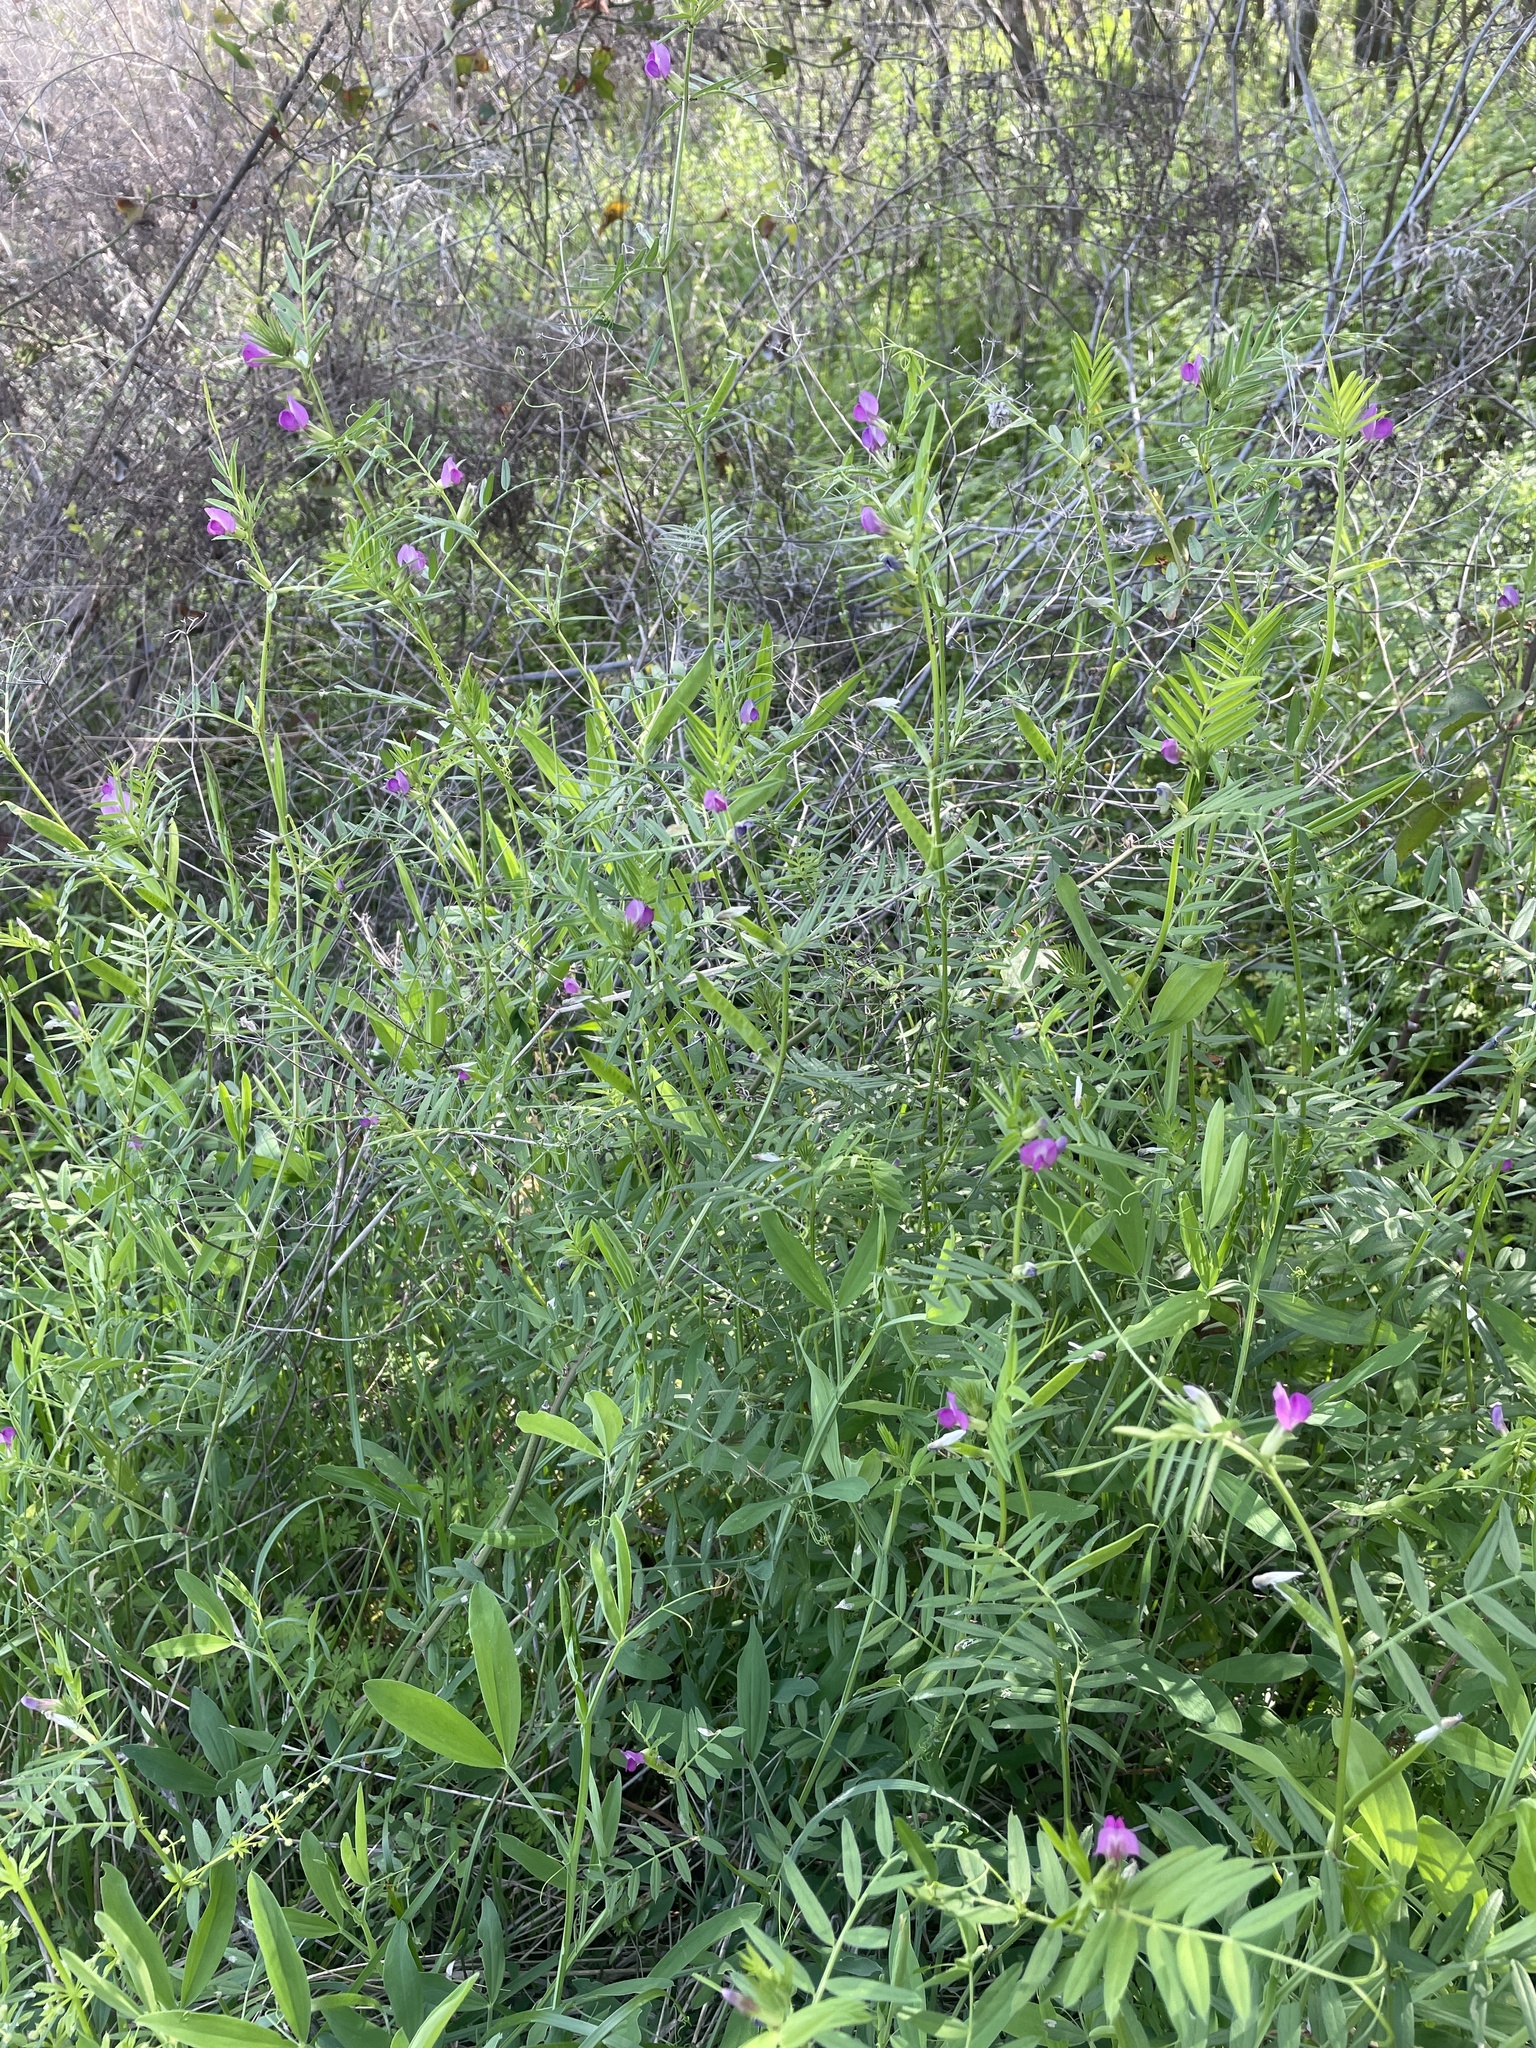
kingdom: Plantae
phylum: Tracheophyta
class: Magnoliopsida
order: Fabales
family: Fabaceae
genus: Vicia
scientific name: Vicia sativa
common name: Garden vetch
